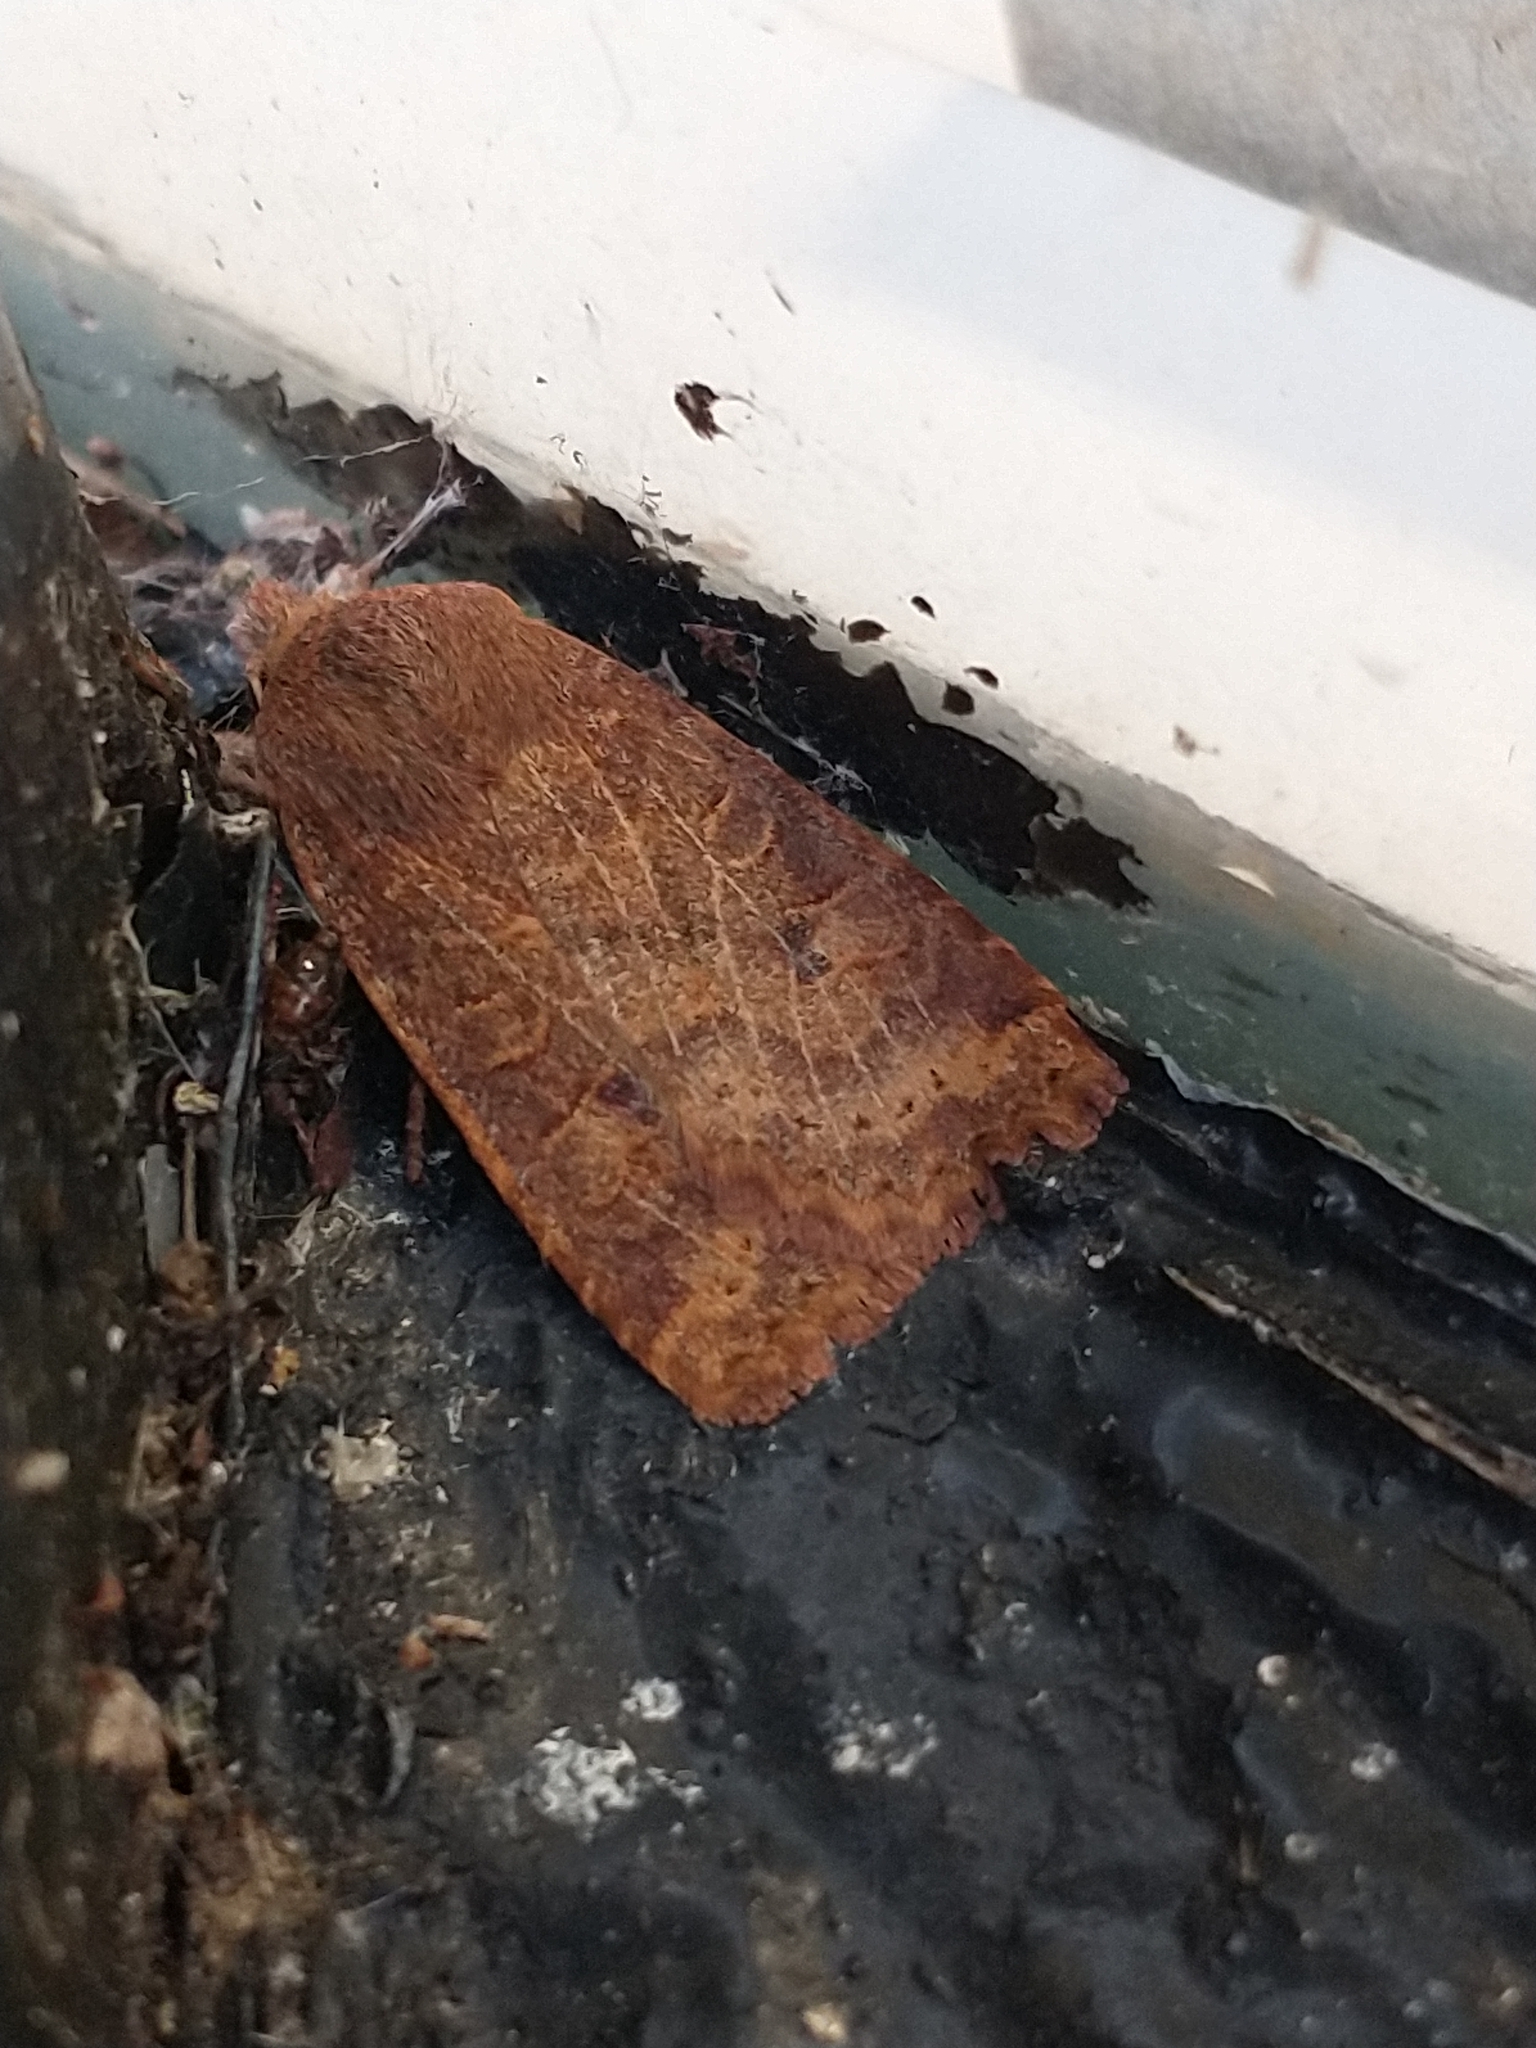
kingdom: Animalia
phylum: Arthropoda
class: Insecta
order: Lepidoptera
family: Noctuidae
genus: Conistra
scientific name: Conistra vaccinii
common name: Chestnut
